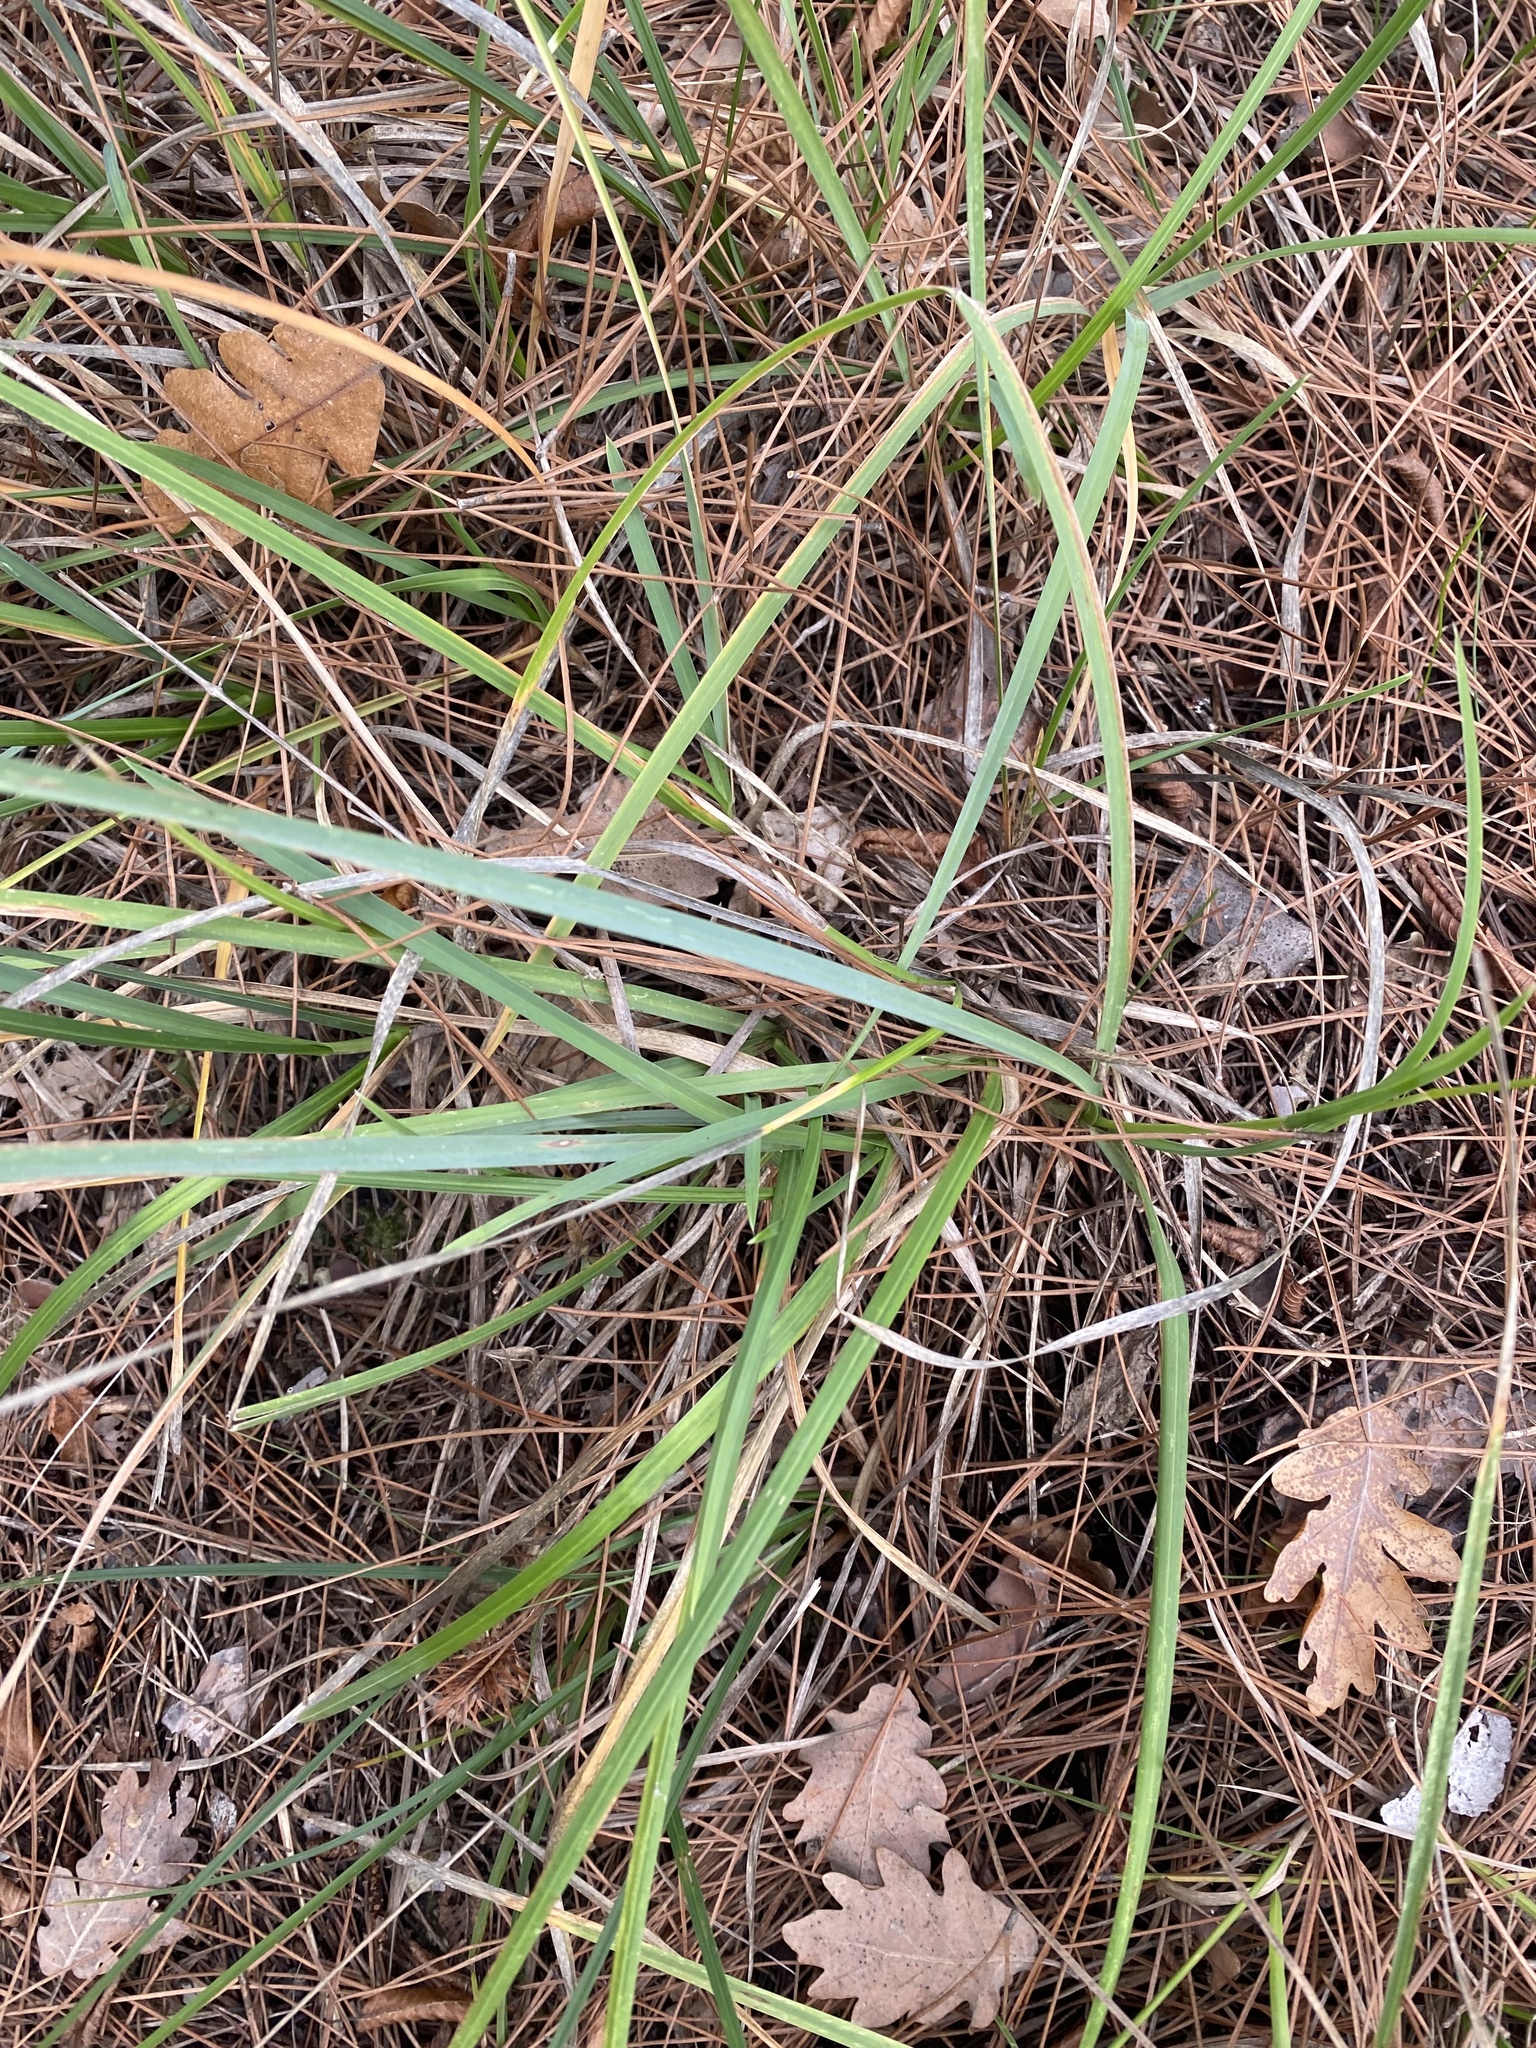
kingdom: Plantae
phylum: Tracheophyta
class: Liliopsida
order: Poales
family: Poaceae
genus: Sesleria
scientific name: Sesleria alba
